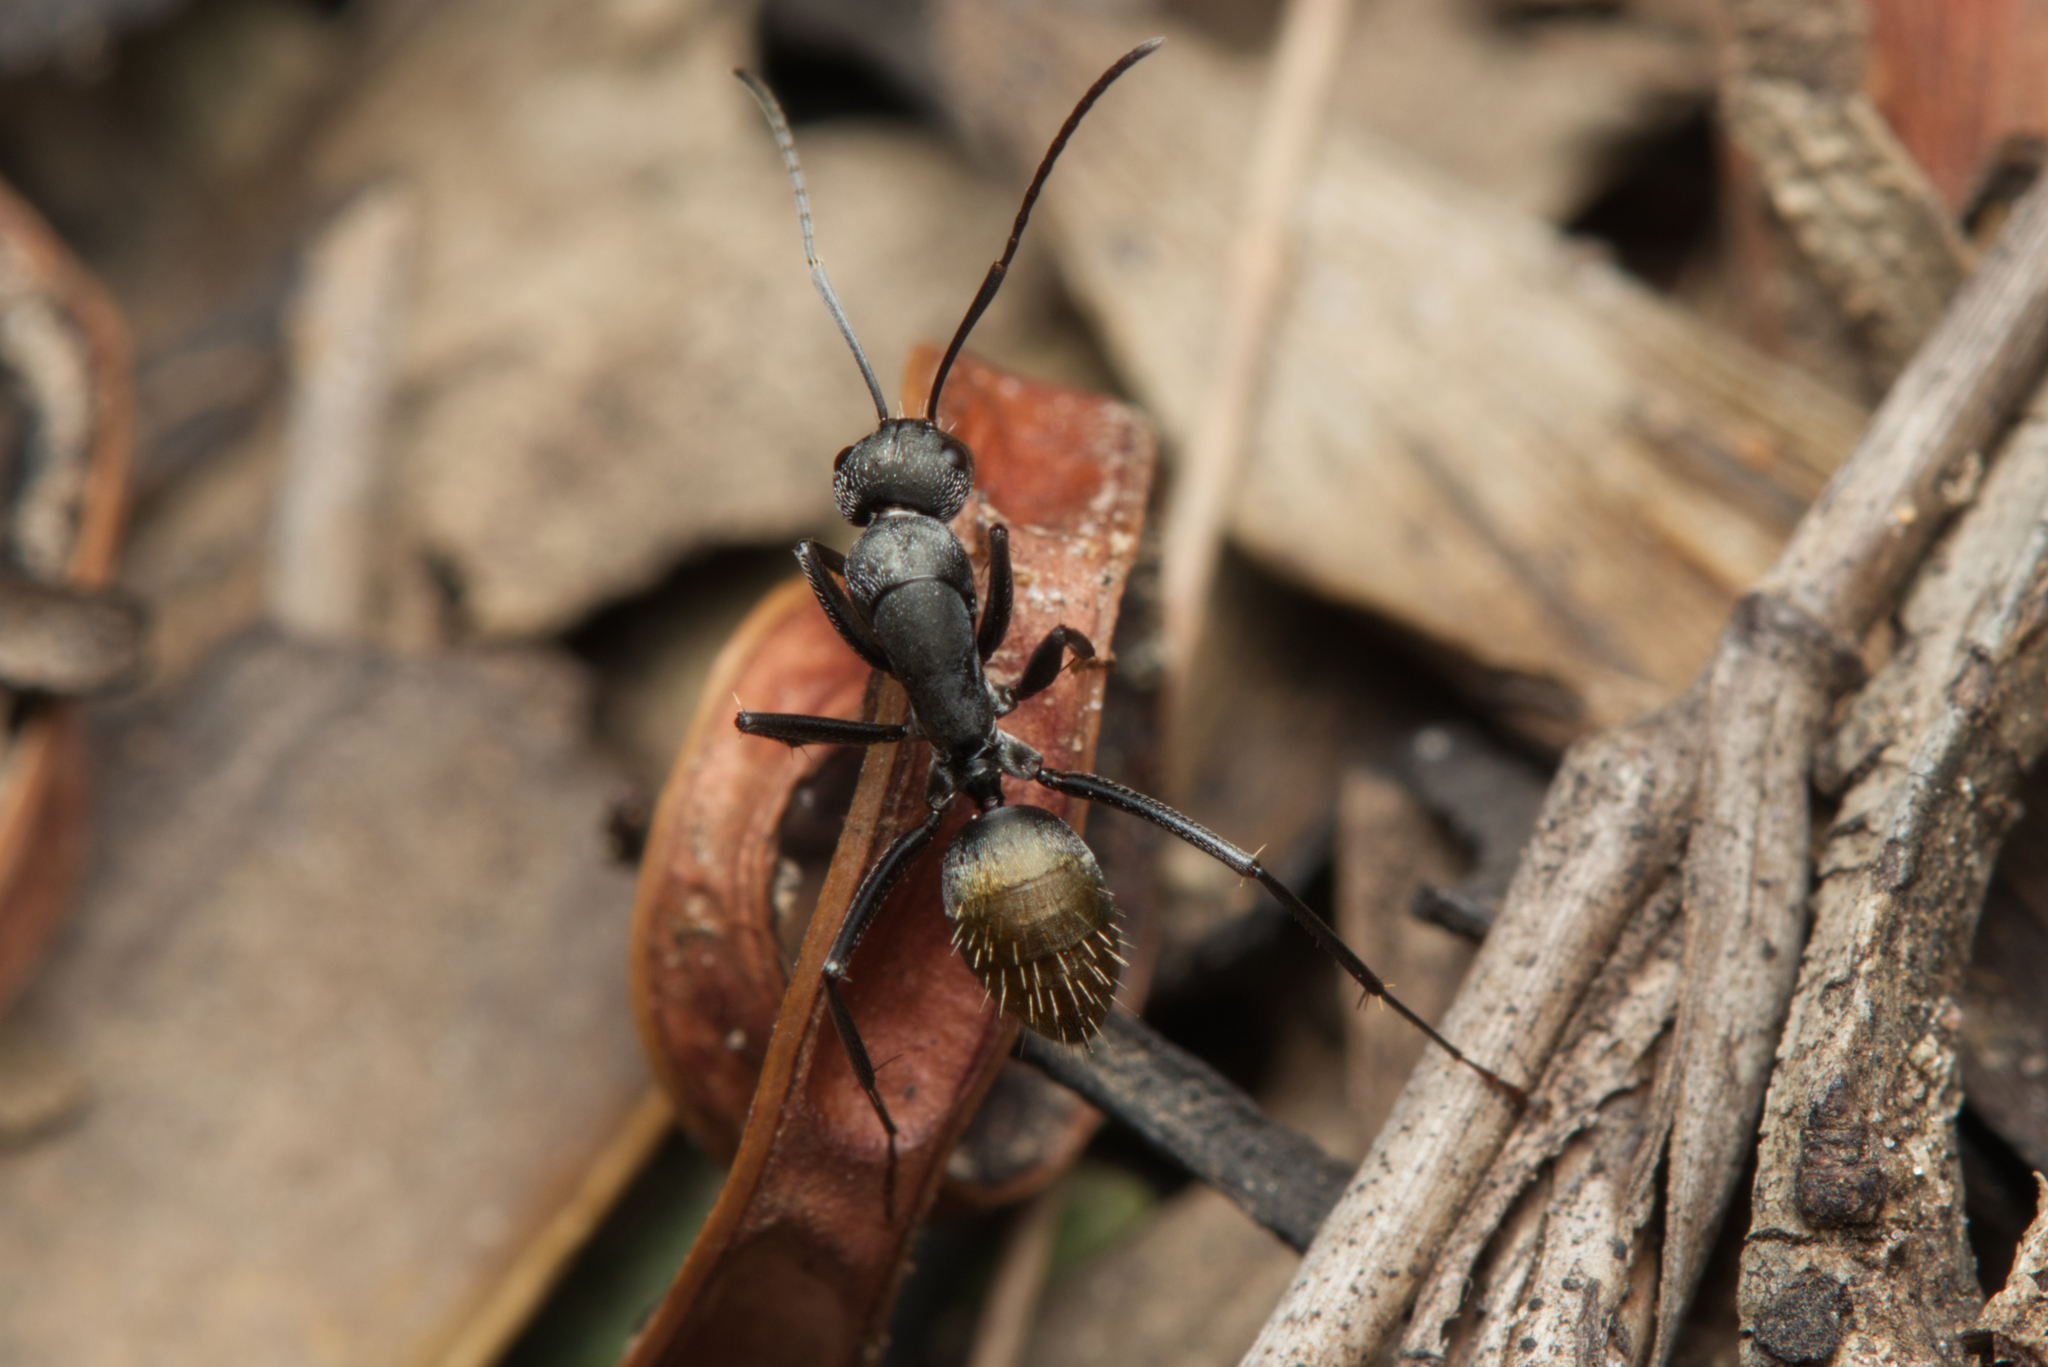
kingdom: Animalia
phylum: Arthropoda
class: Insecta
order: Hymenoptera
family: Formicidae
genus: Camponotus
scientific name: Camponotus aeneopilosus
